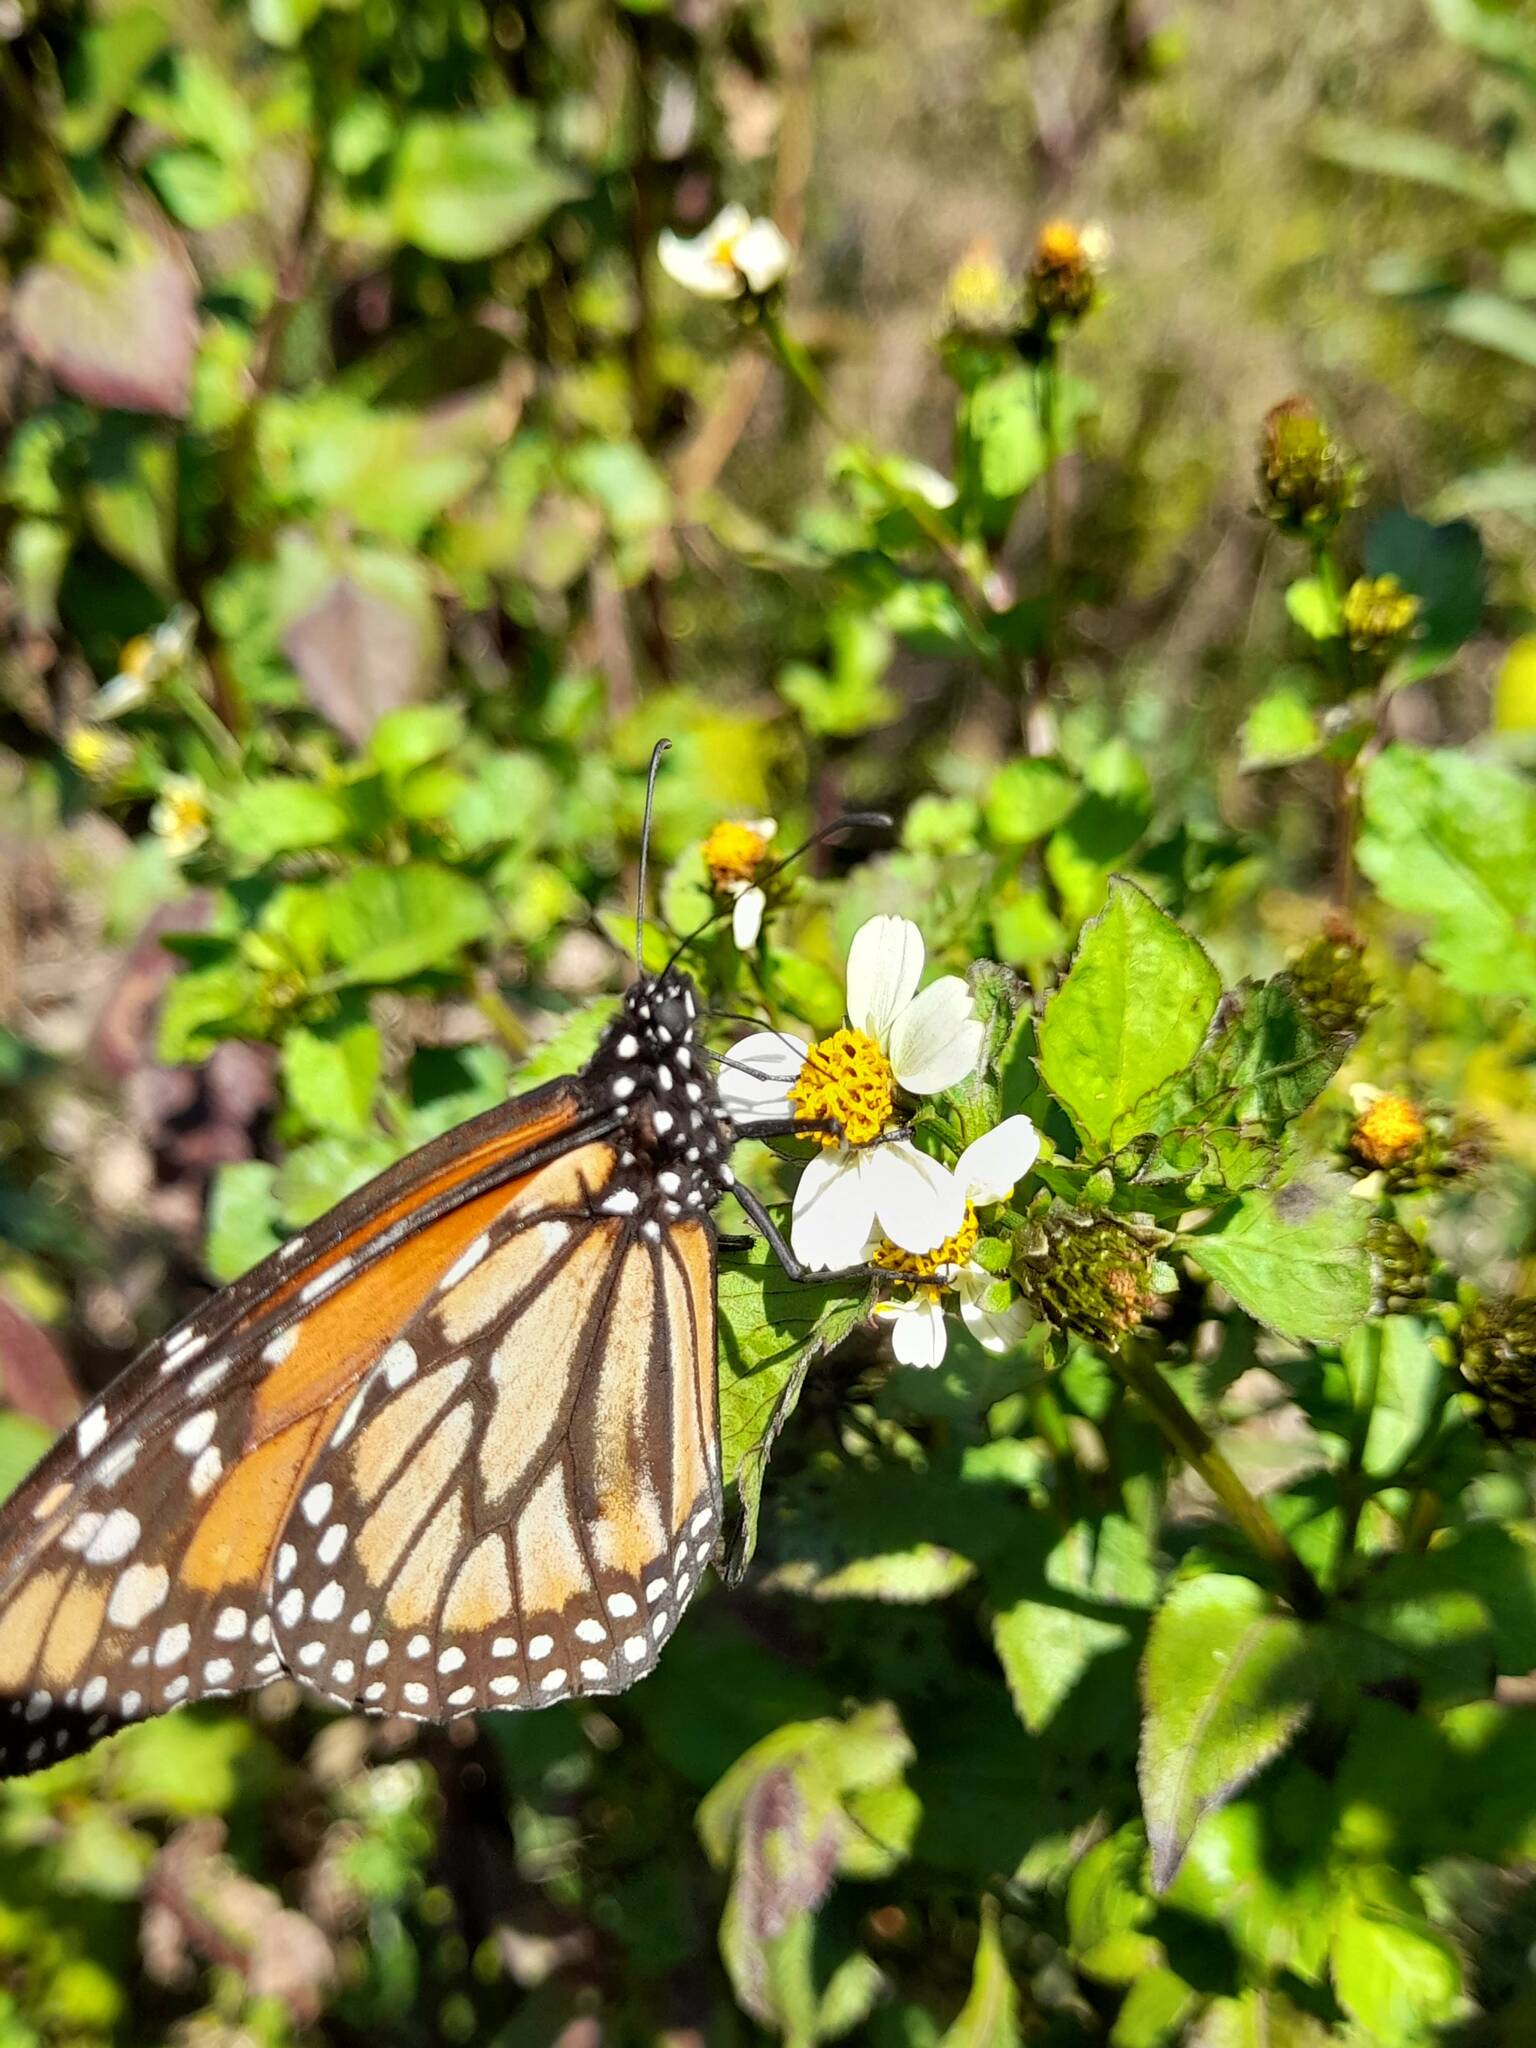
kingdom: Animalia
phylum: Arthropoda
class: Insecta
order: Lepidoptera
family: Nymphalidae
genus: Danaus
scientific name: Danaus erippus
